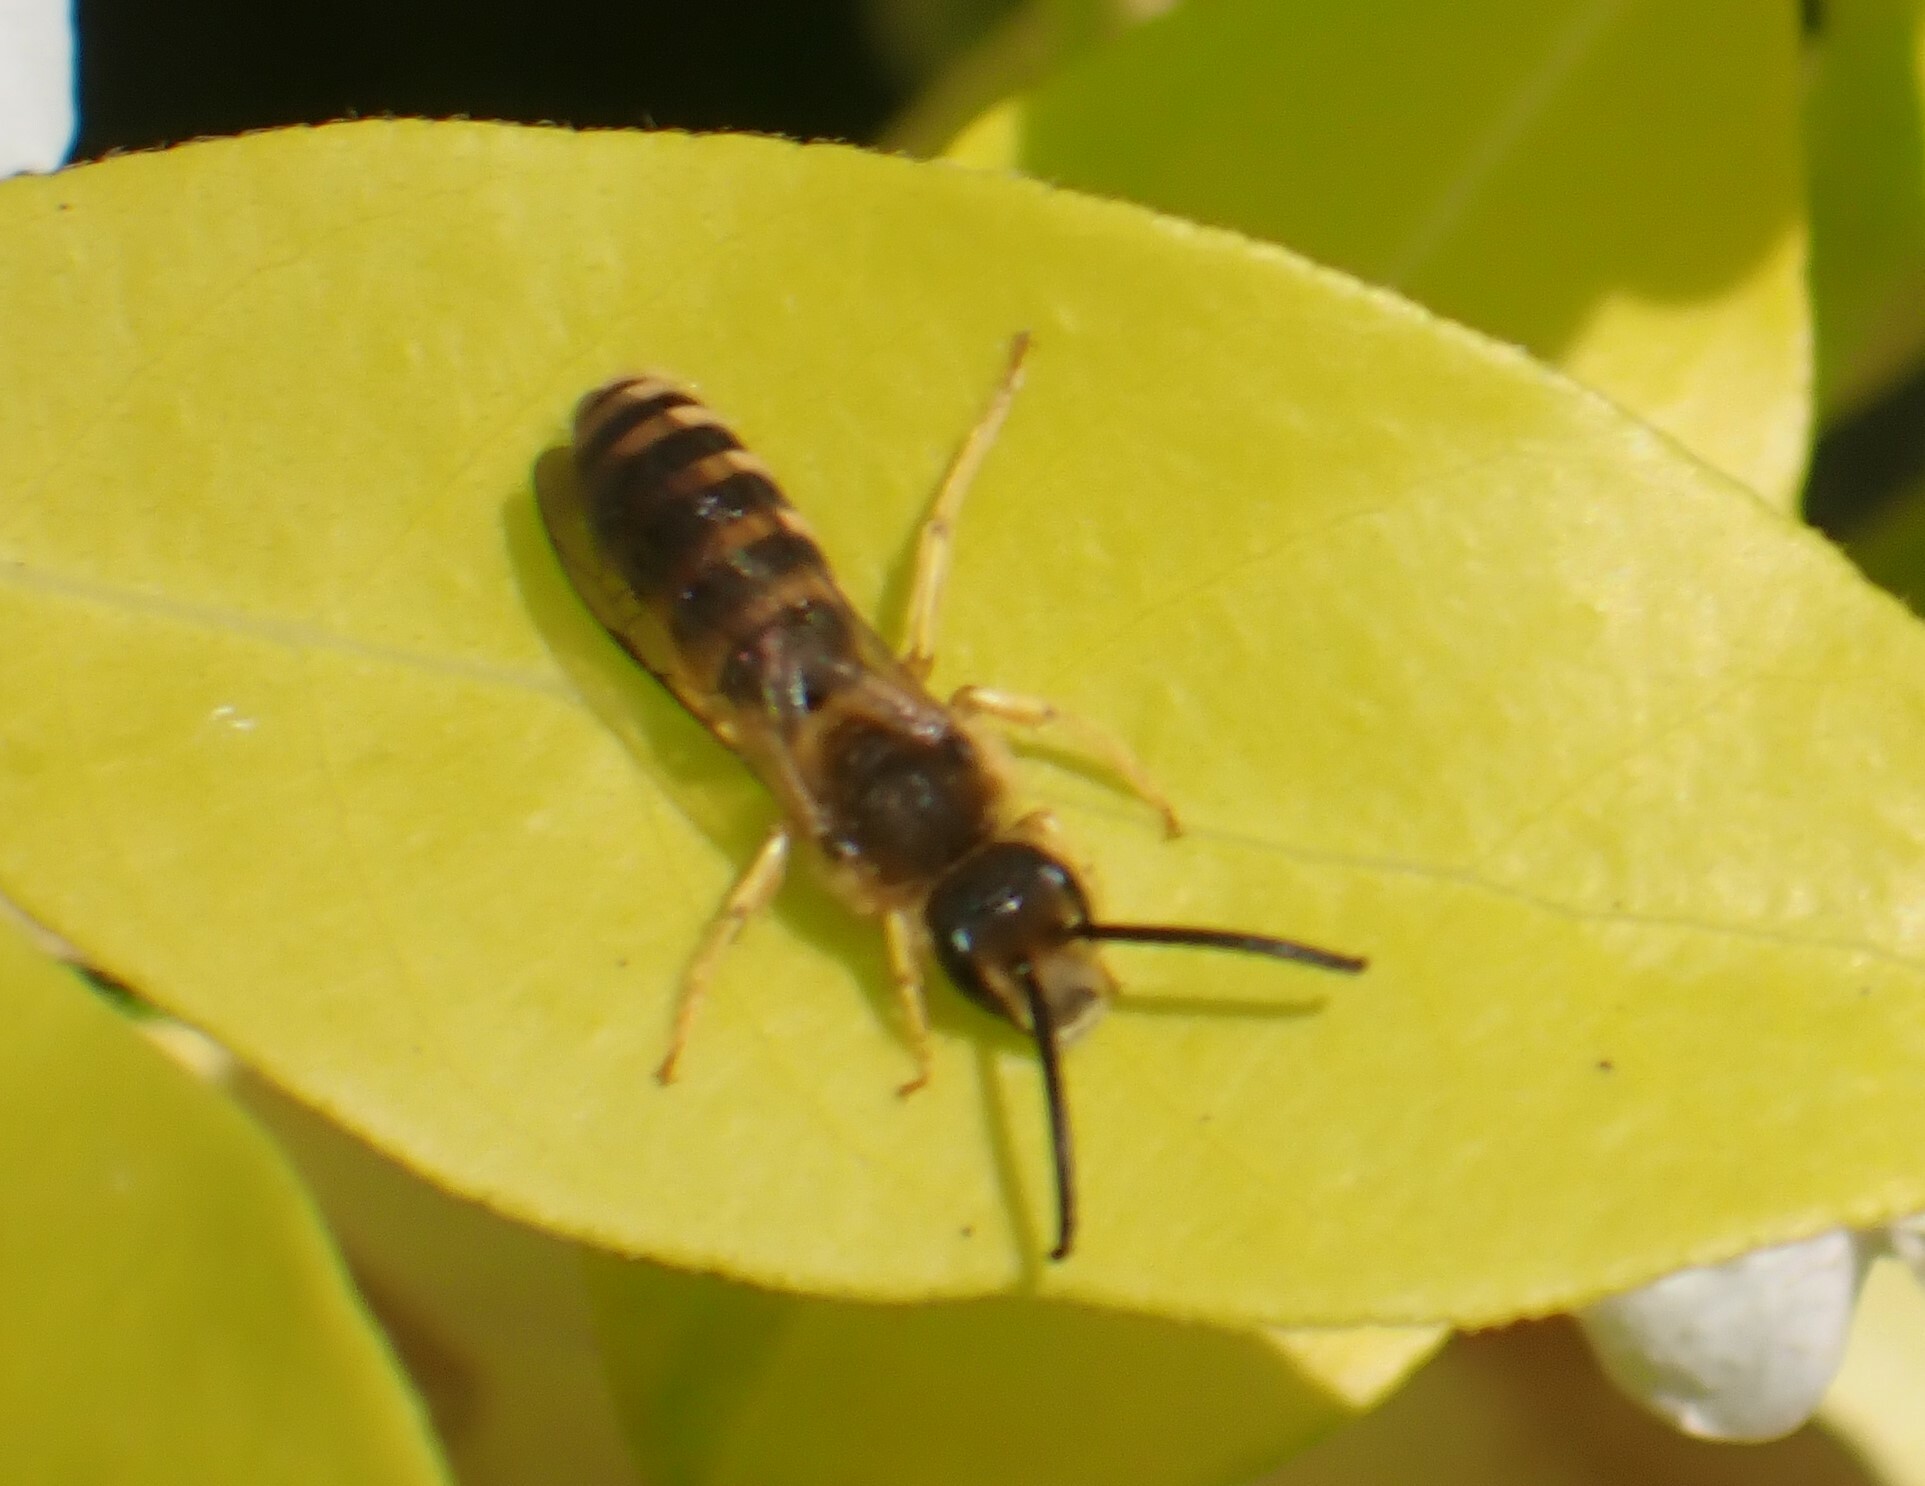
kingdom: Animalia
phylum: Arthropoda
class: Insecta
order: Hymenoptera
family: Halictidae
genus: Halictus
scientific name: Halictus scabiosae
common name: Great banded furrow bee
